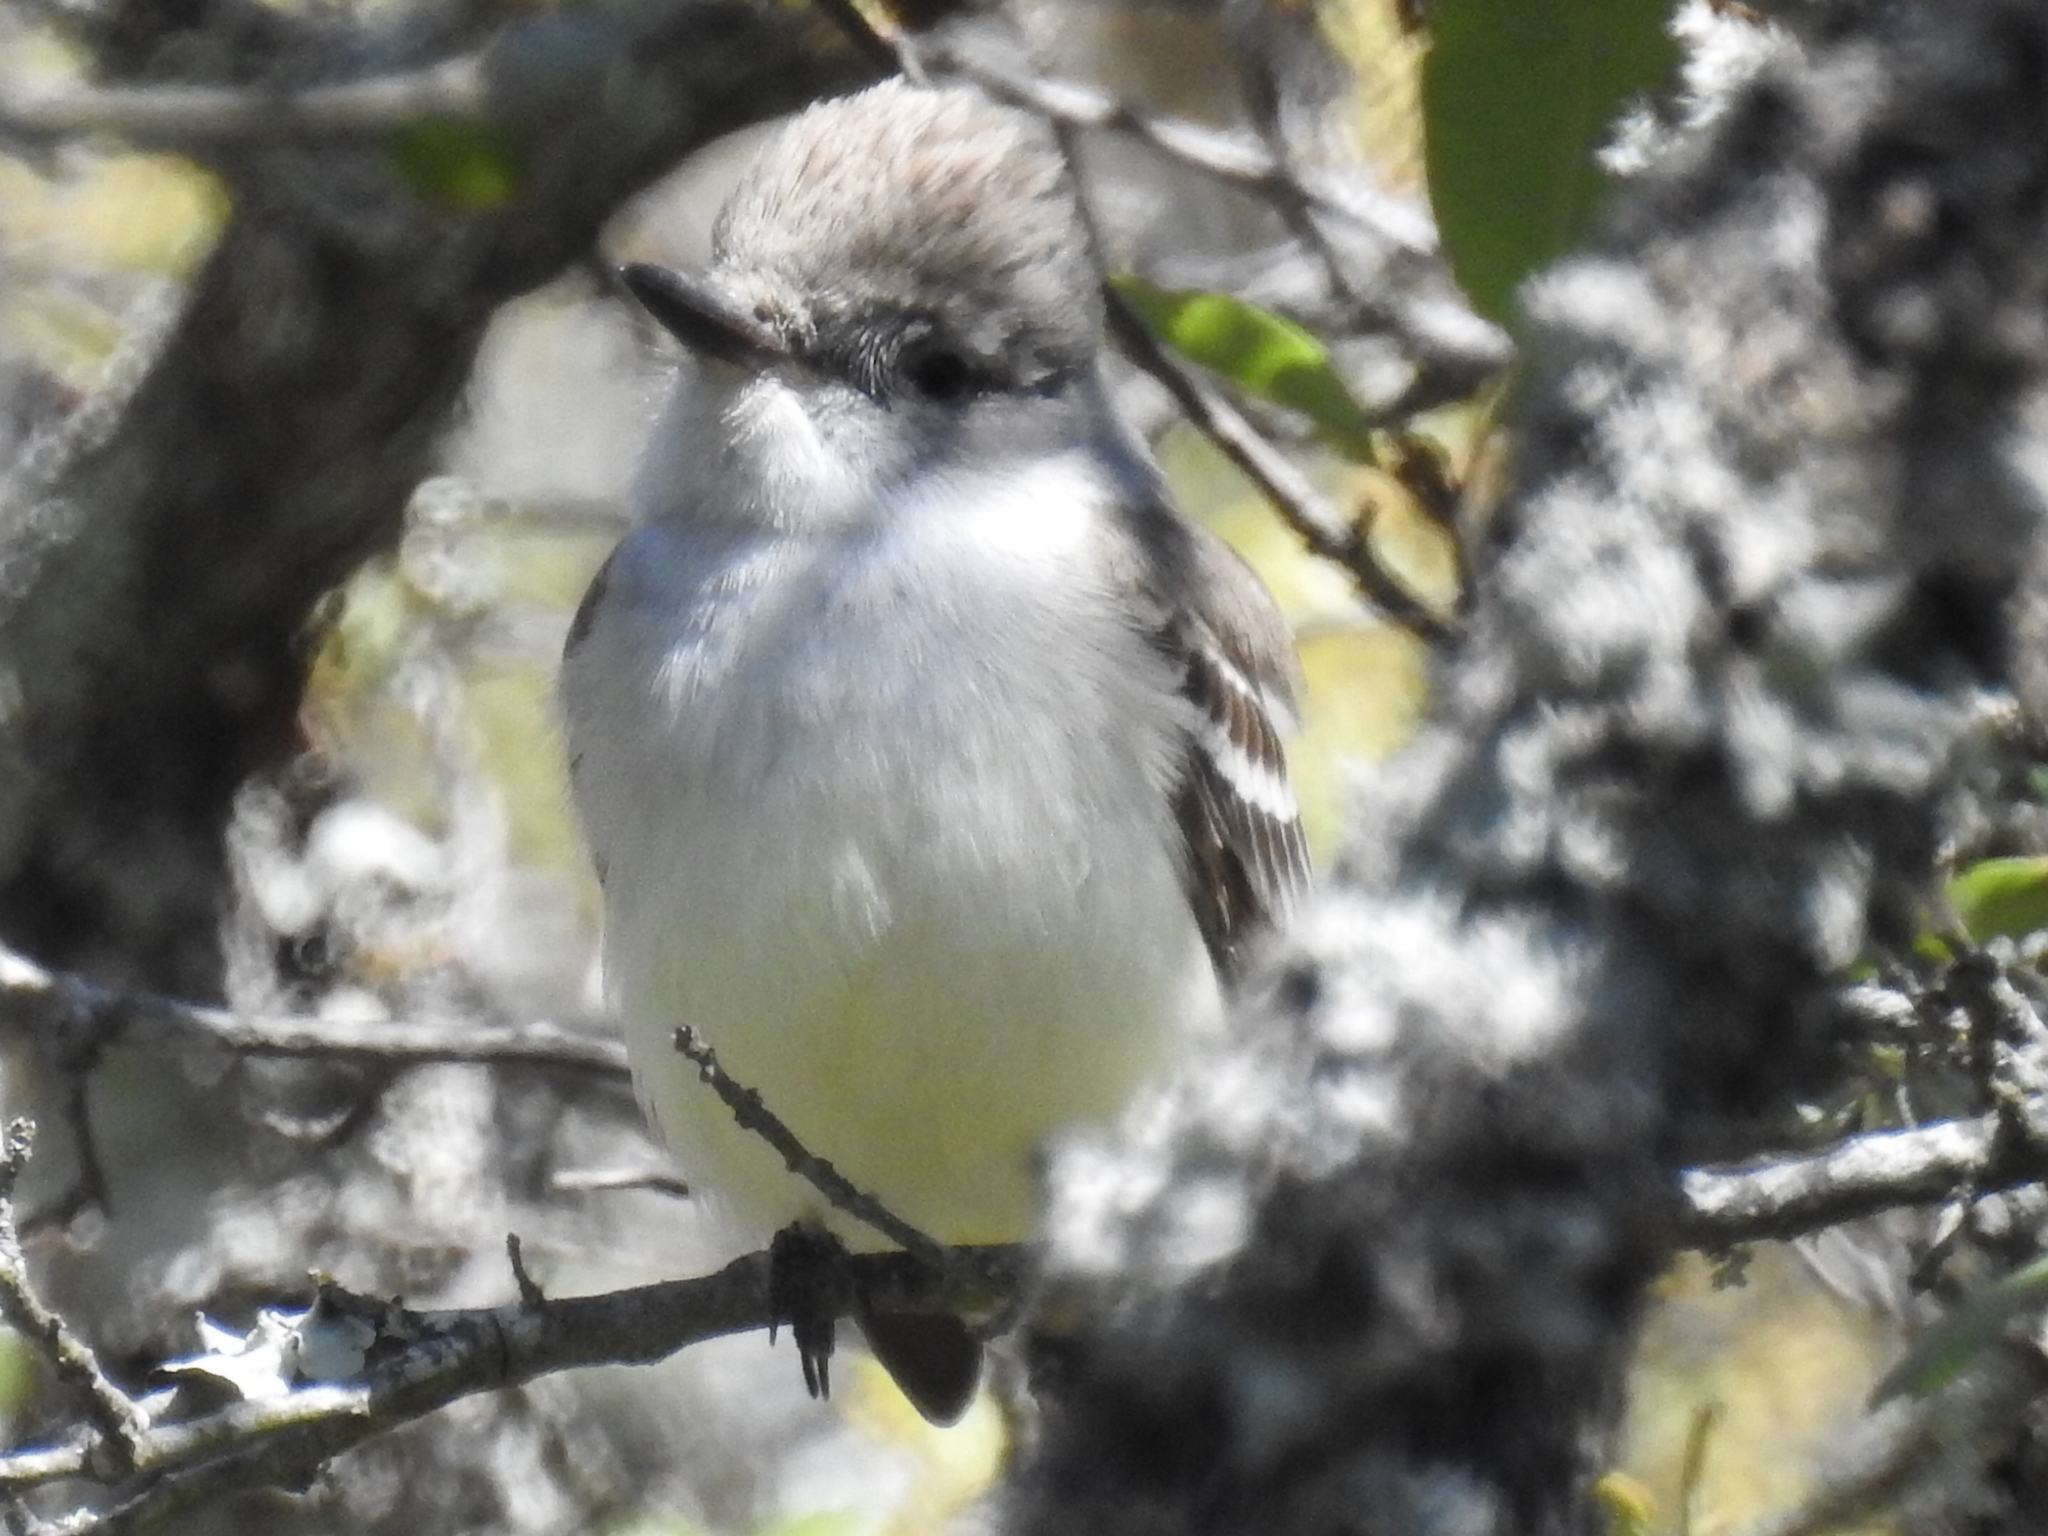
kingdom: Animalia
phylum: Chordata
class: Aves
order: Passeriformes
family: Tyrannidae
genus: Myiarchus
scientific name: Myiarchus cinerascens
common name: Ash-throated flycatcher
